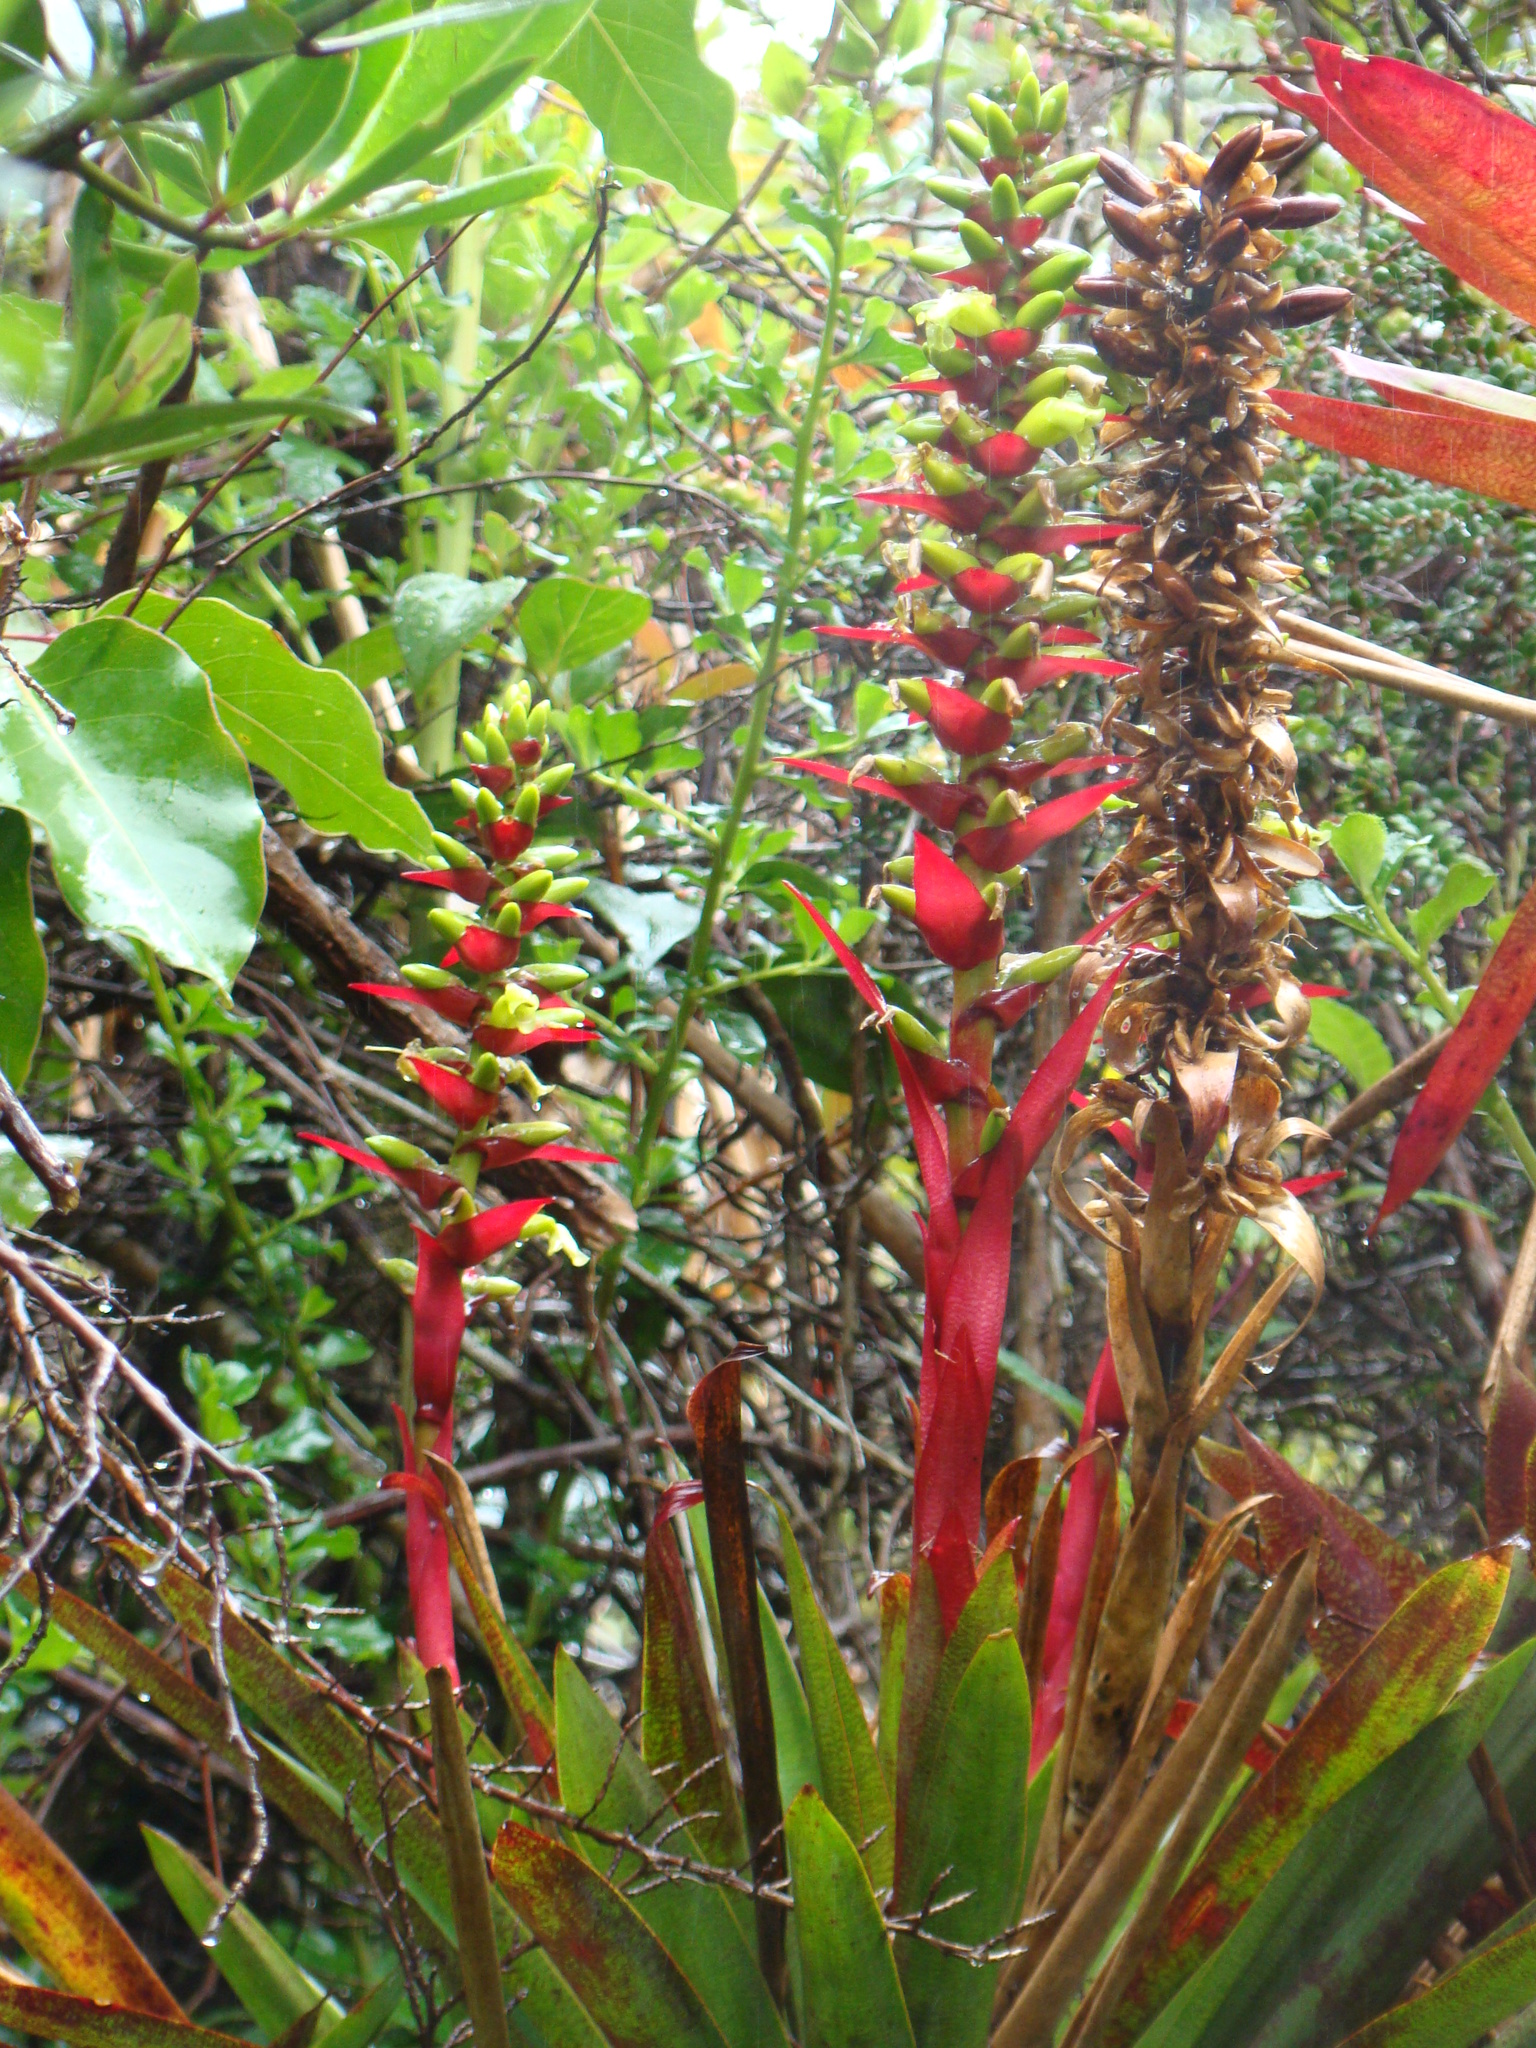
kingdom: Plantae
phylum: Tracheophyta
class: Liliopsida
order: Poales
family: Bromeliaceae
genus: Werauhia
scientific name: Werauhia ororiensis
